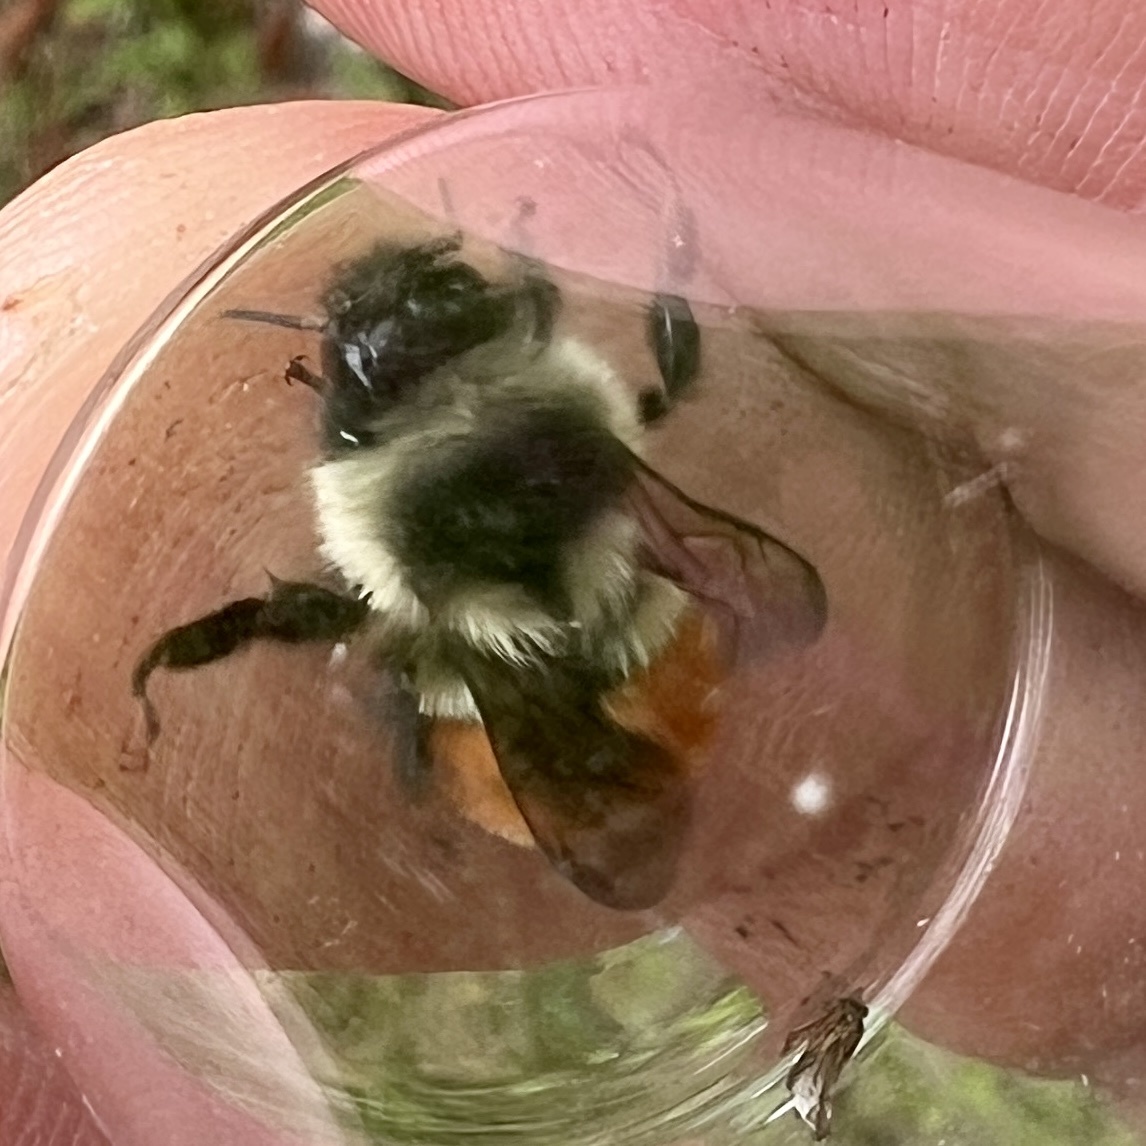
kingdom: Animalia
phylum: Arthropoda
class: Insecta
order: Hymenoptera
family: Apidae
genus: Bombus
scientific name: Bombus ternarius
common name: Tri-colored bumble bee
